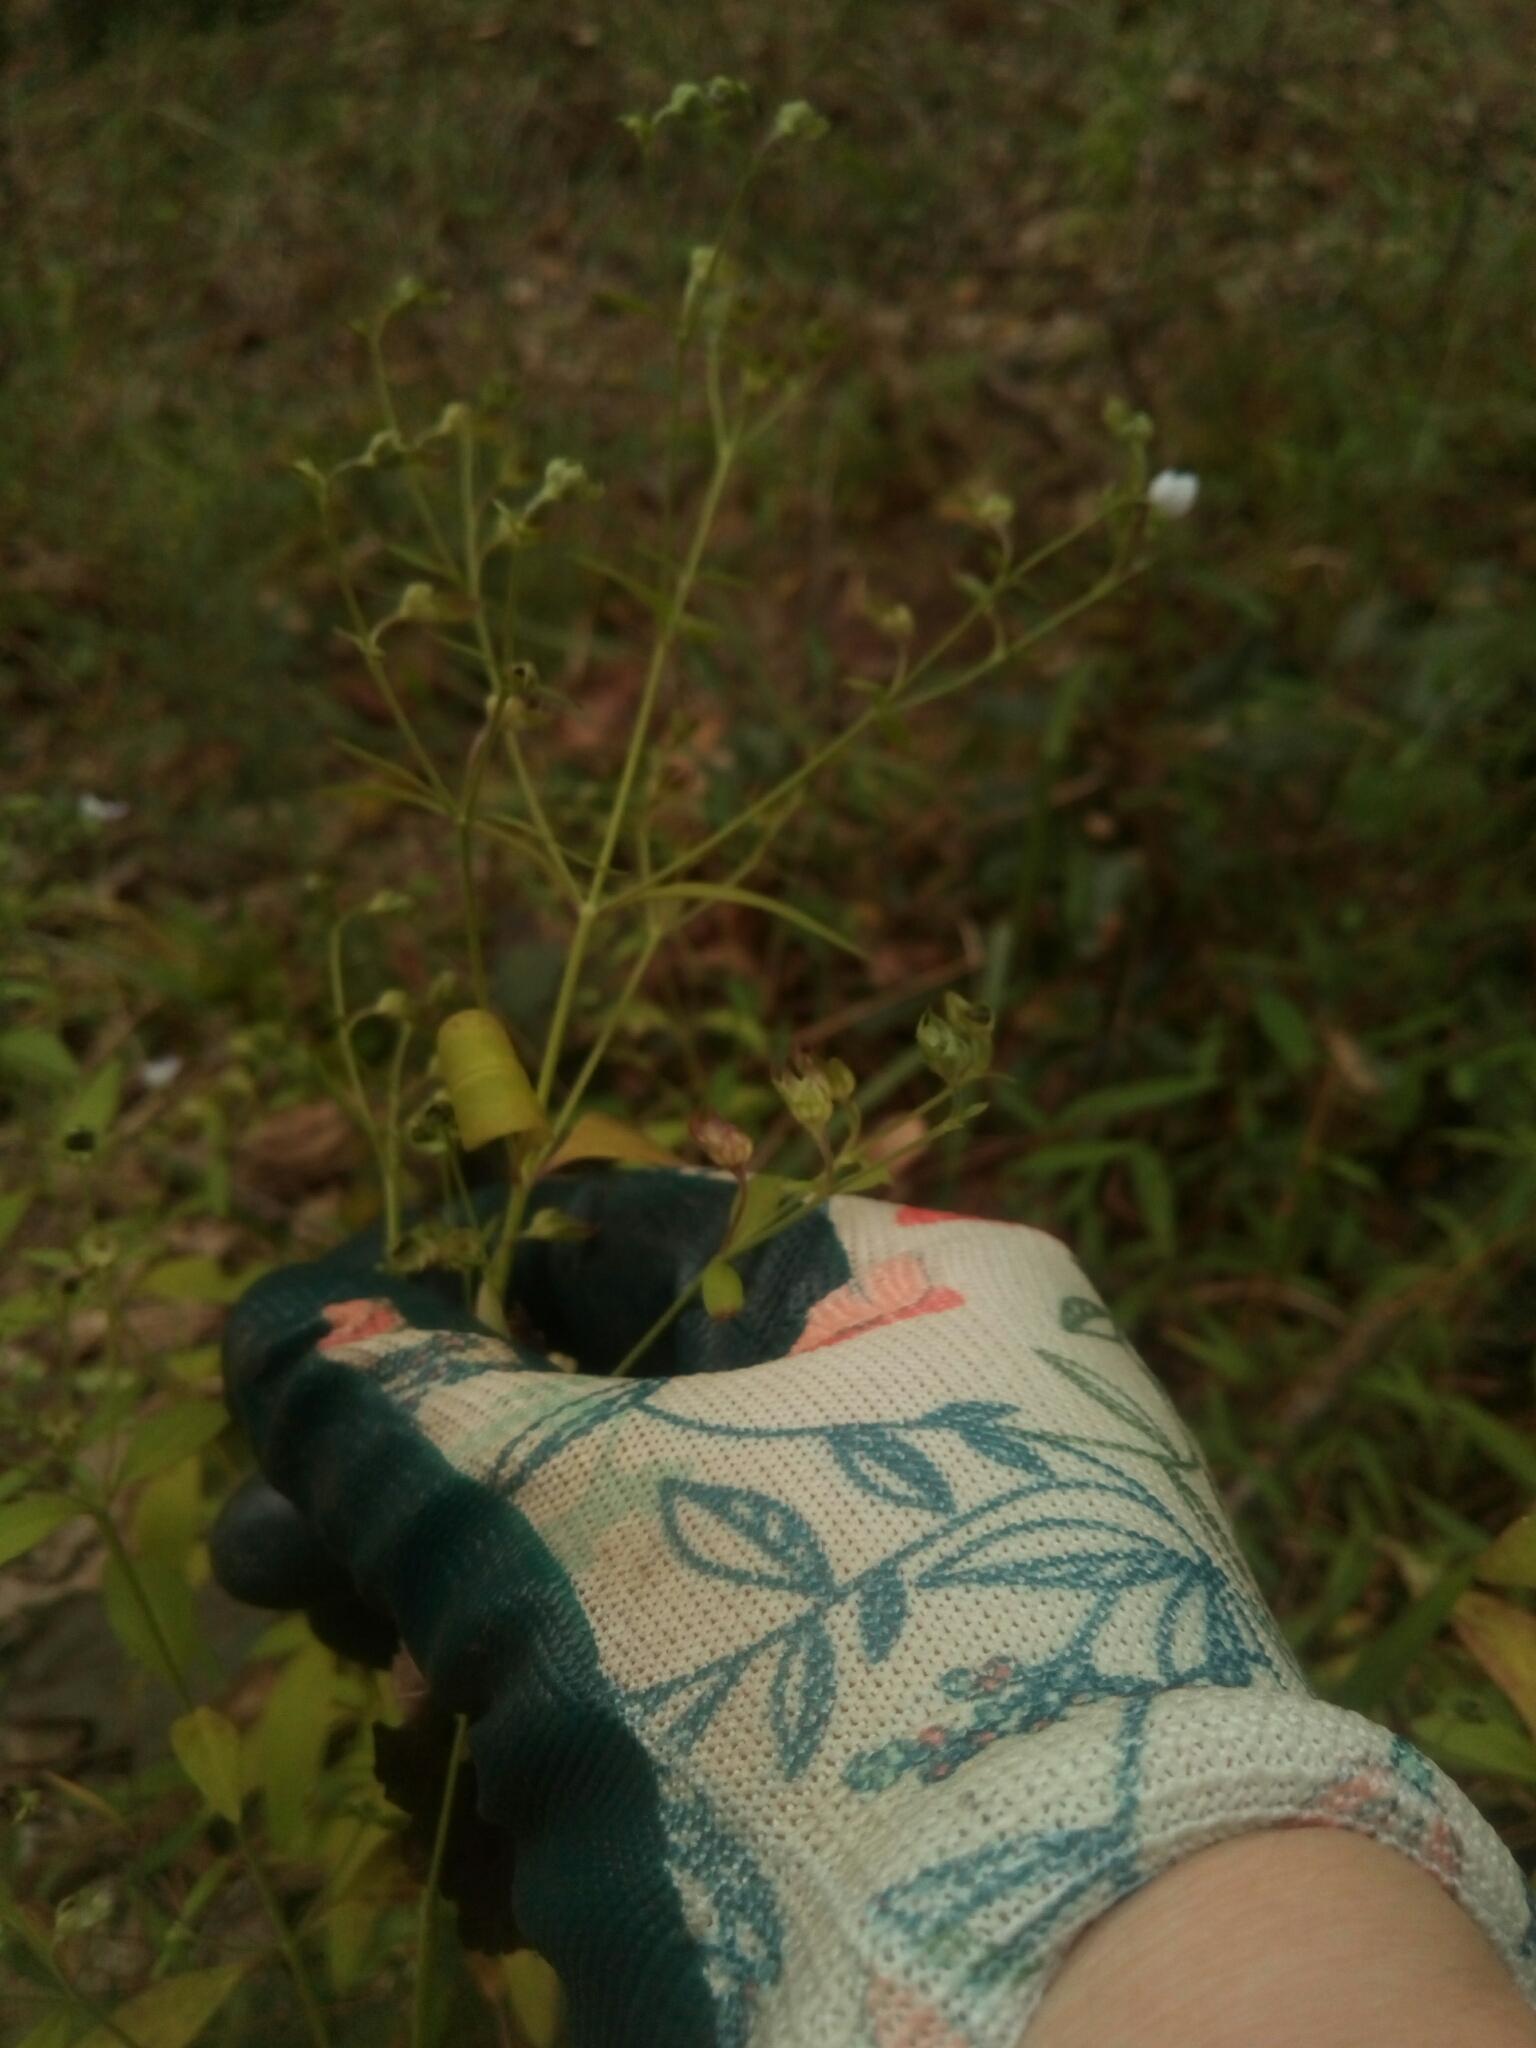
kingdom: Plantae
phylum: Tracheophyta
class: Magnoliopsida
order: Lamiales
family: Lamiaceae
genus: Trichostema
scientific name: Trichostema dichotomum
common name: Bastard pennyroyal
